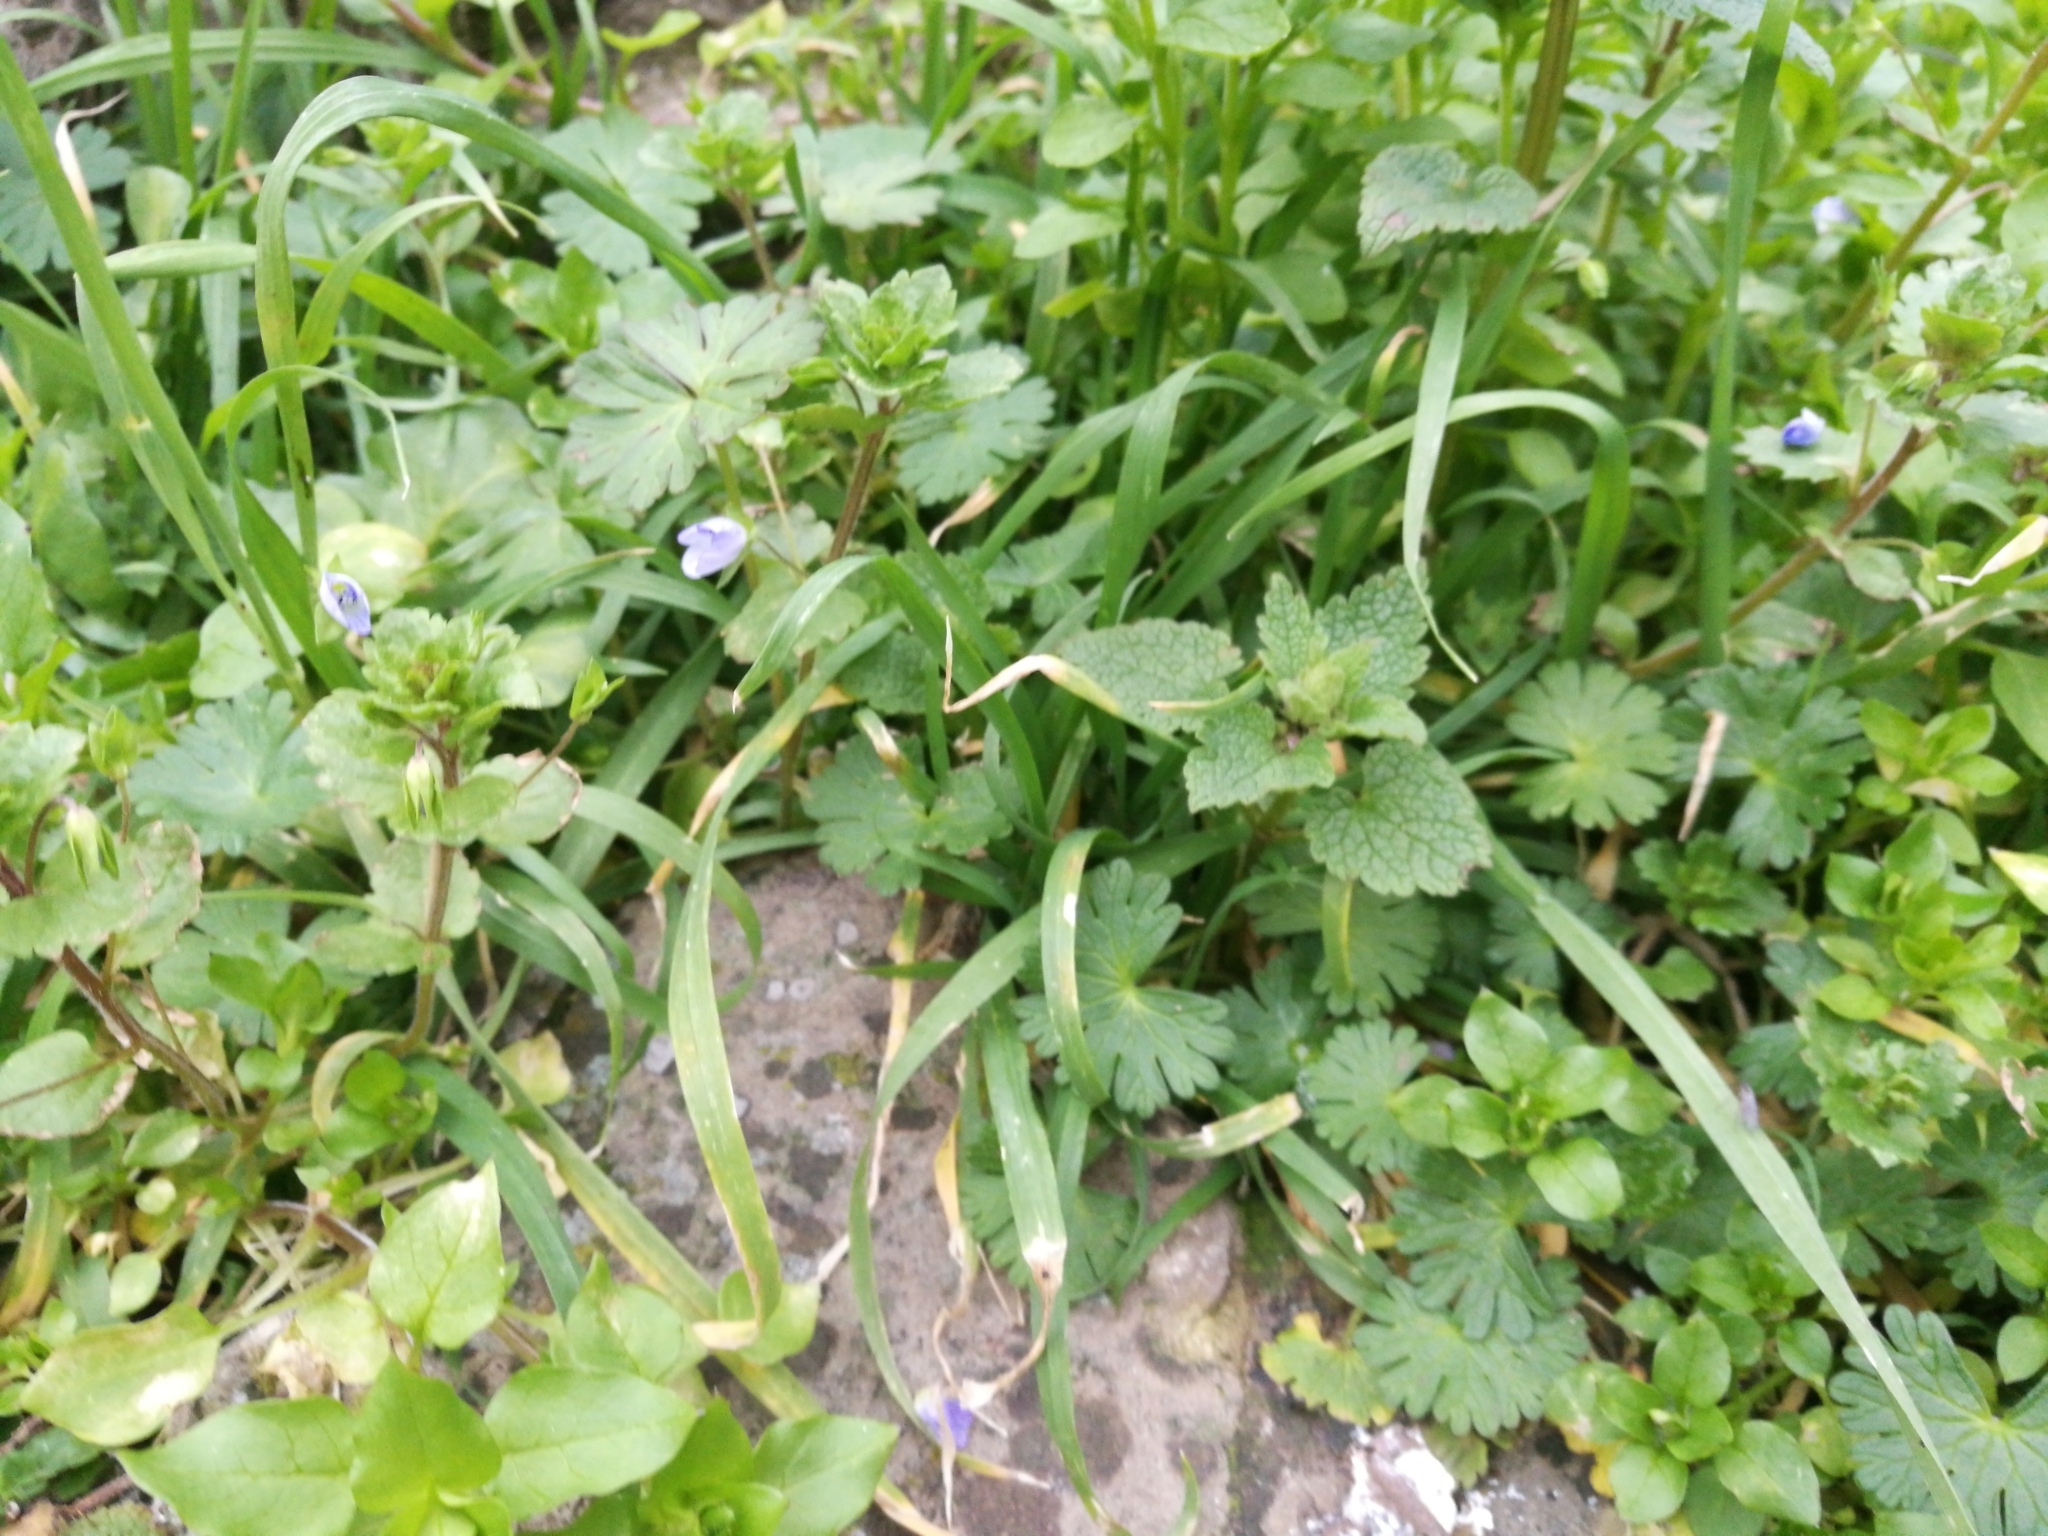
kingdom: Plantae
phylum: Tracheophyta
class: Magnoliopsida
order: Lamiales
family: Plantaginaceae
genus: Veronica
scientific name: Veronica persica
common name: Common field-speedwell
